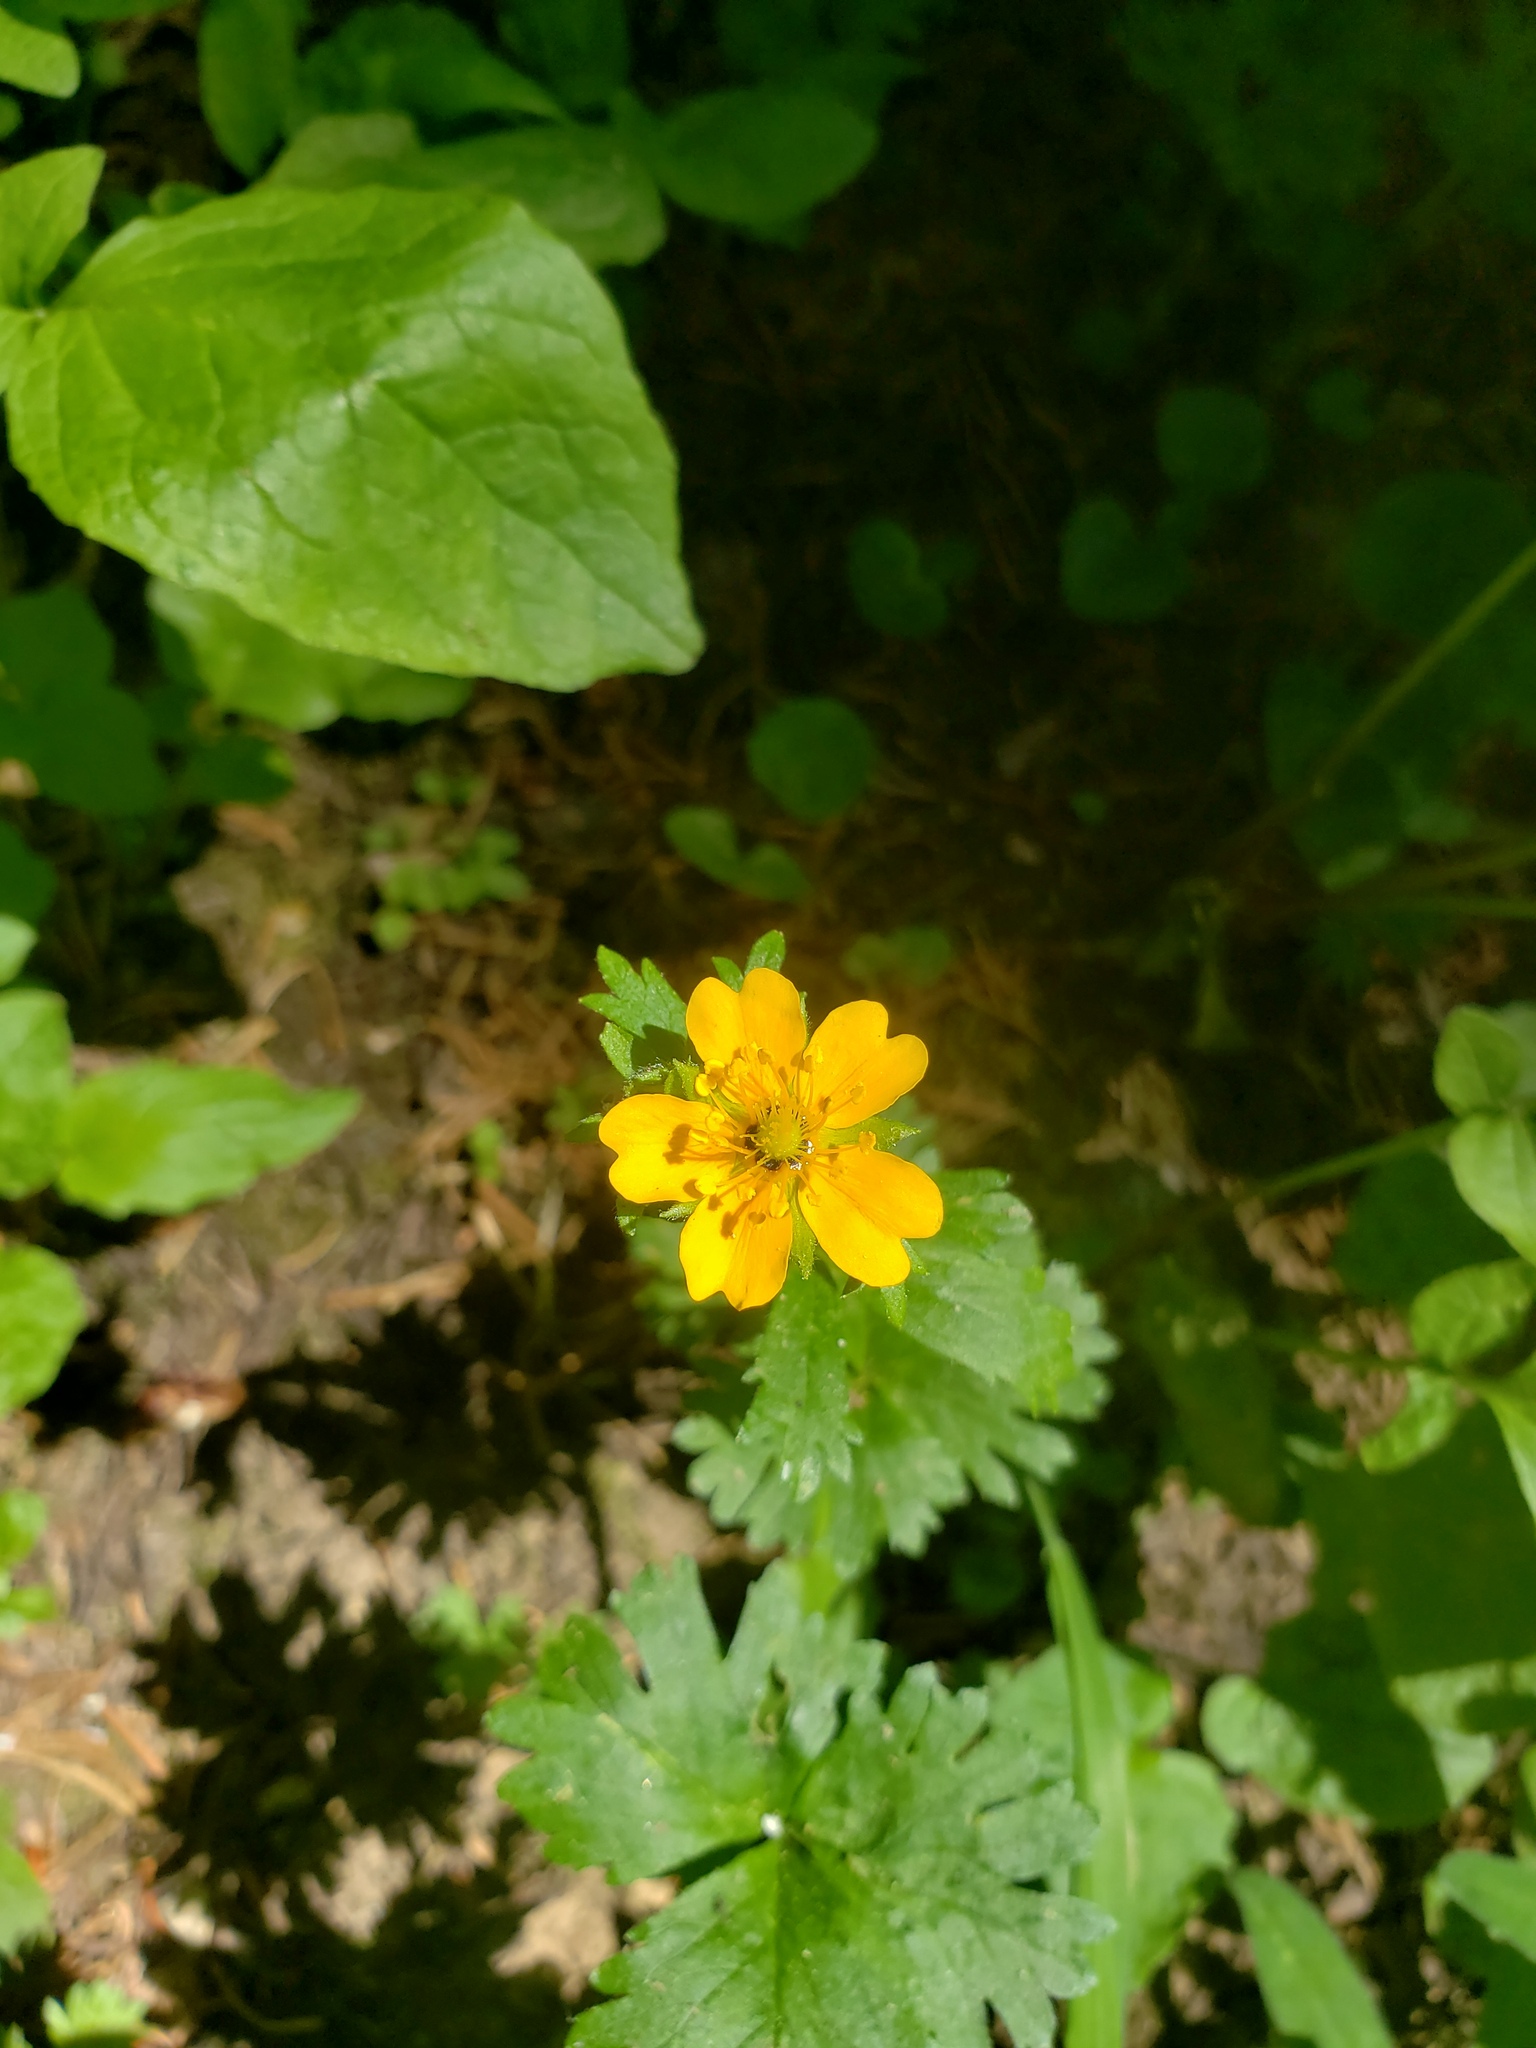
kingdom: Plantae
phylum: Tracheophyta
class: Magnoliopsida
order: Rosales
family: Rosaceae
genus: Potentilla
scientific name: Potentilla flabellifolia
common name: Mount rainier cinquefoil
